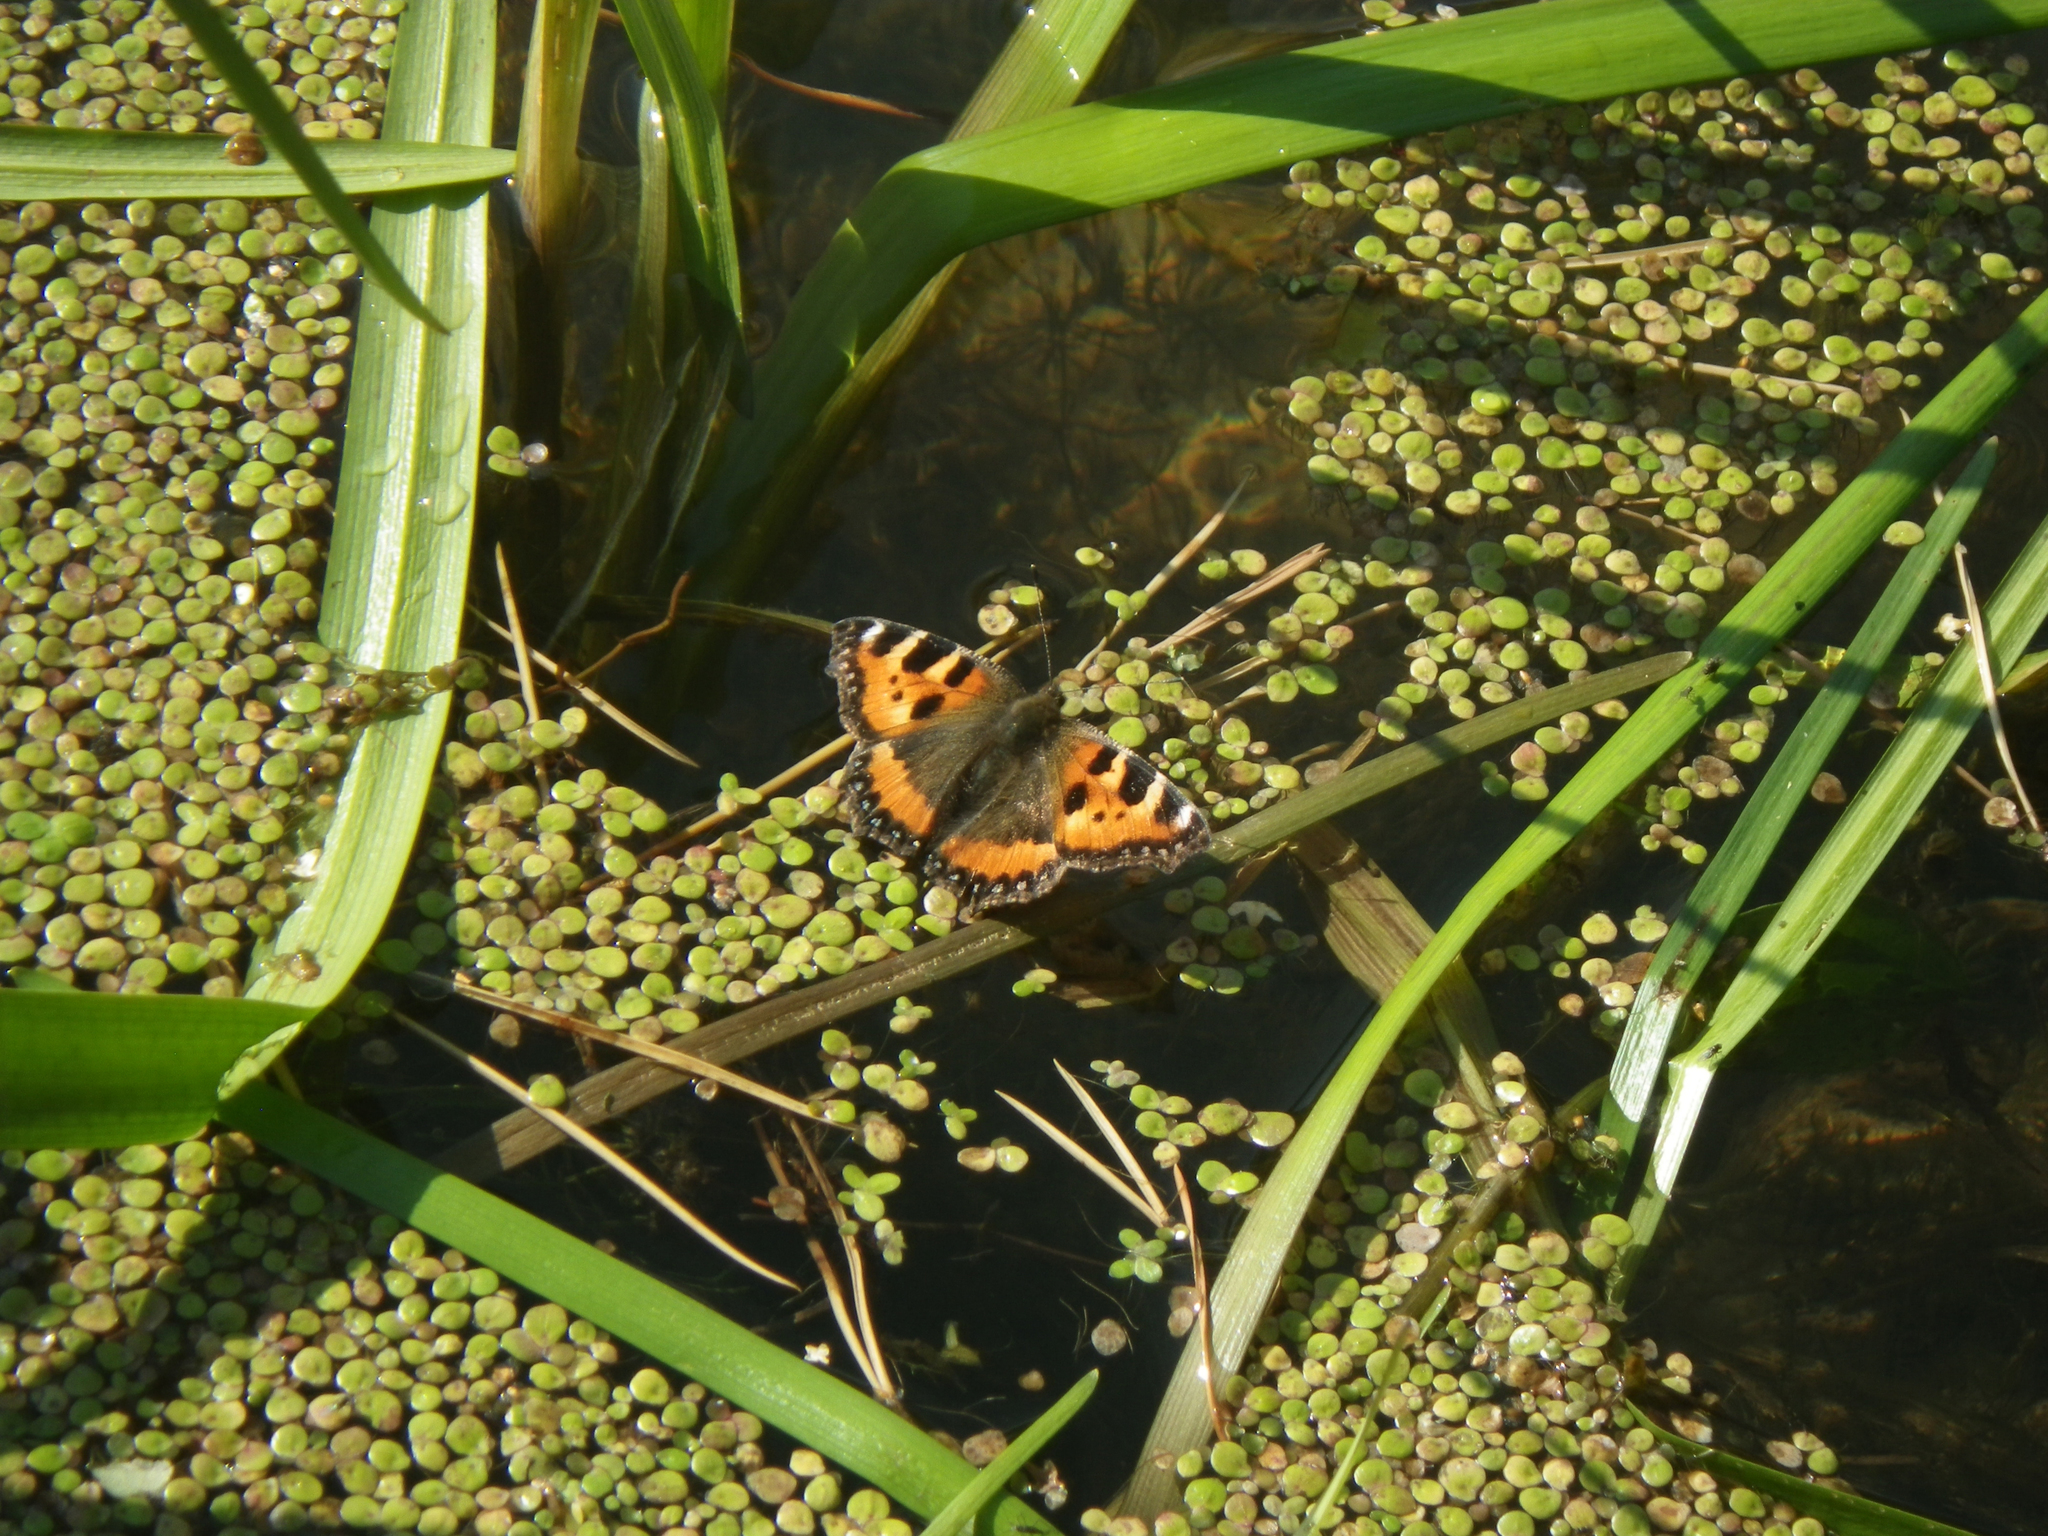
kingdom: Plantae
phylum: Tracheophyta
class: Liliopsida
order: Alismatales
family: Araceae
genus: Spirodela
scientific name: Spirodela polyrhiza
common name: Great duckweed
